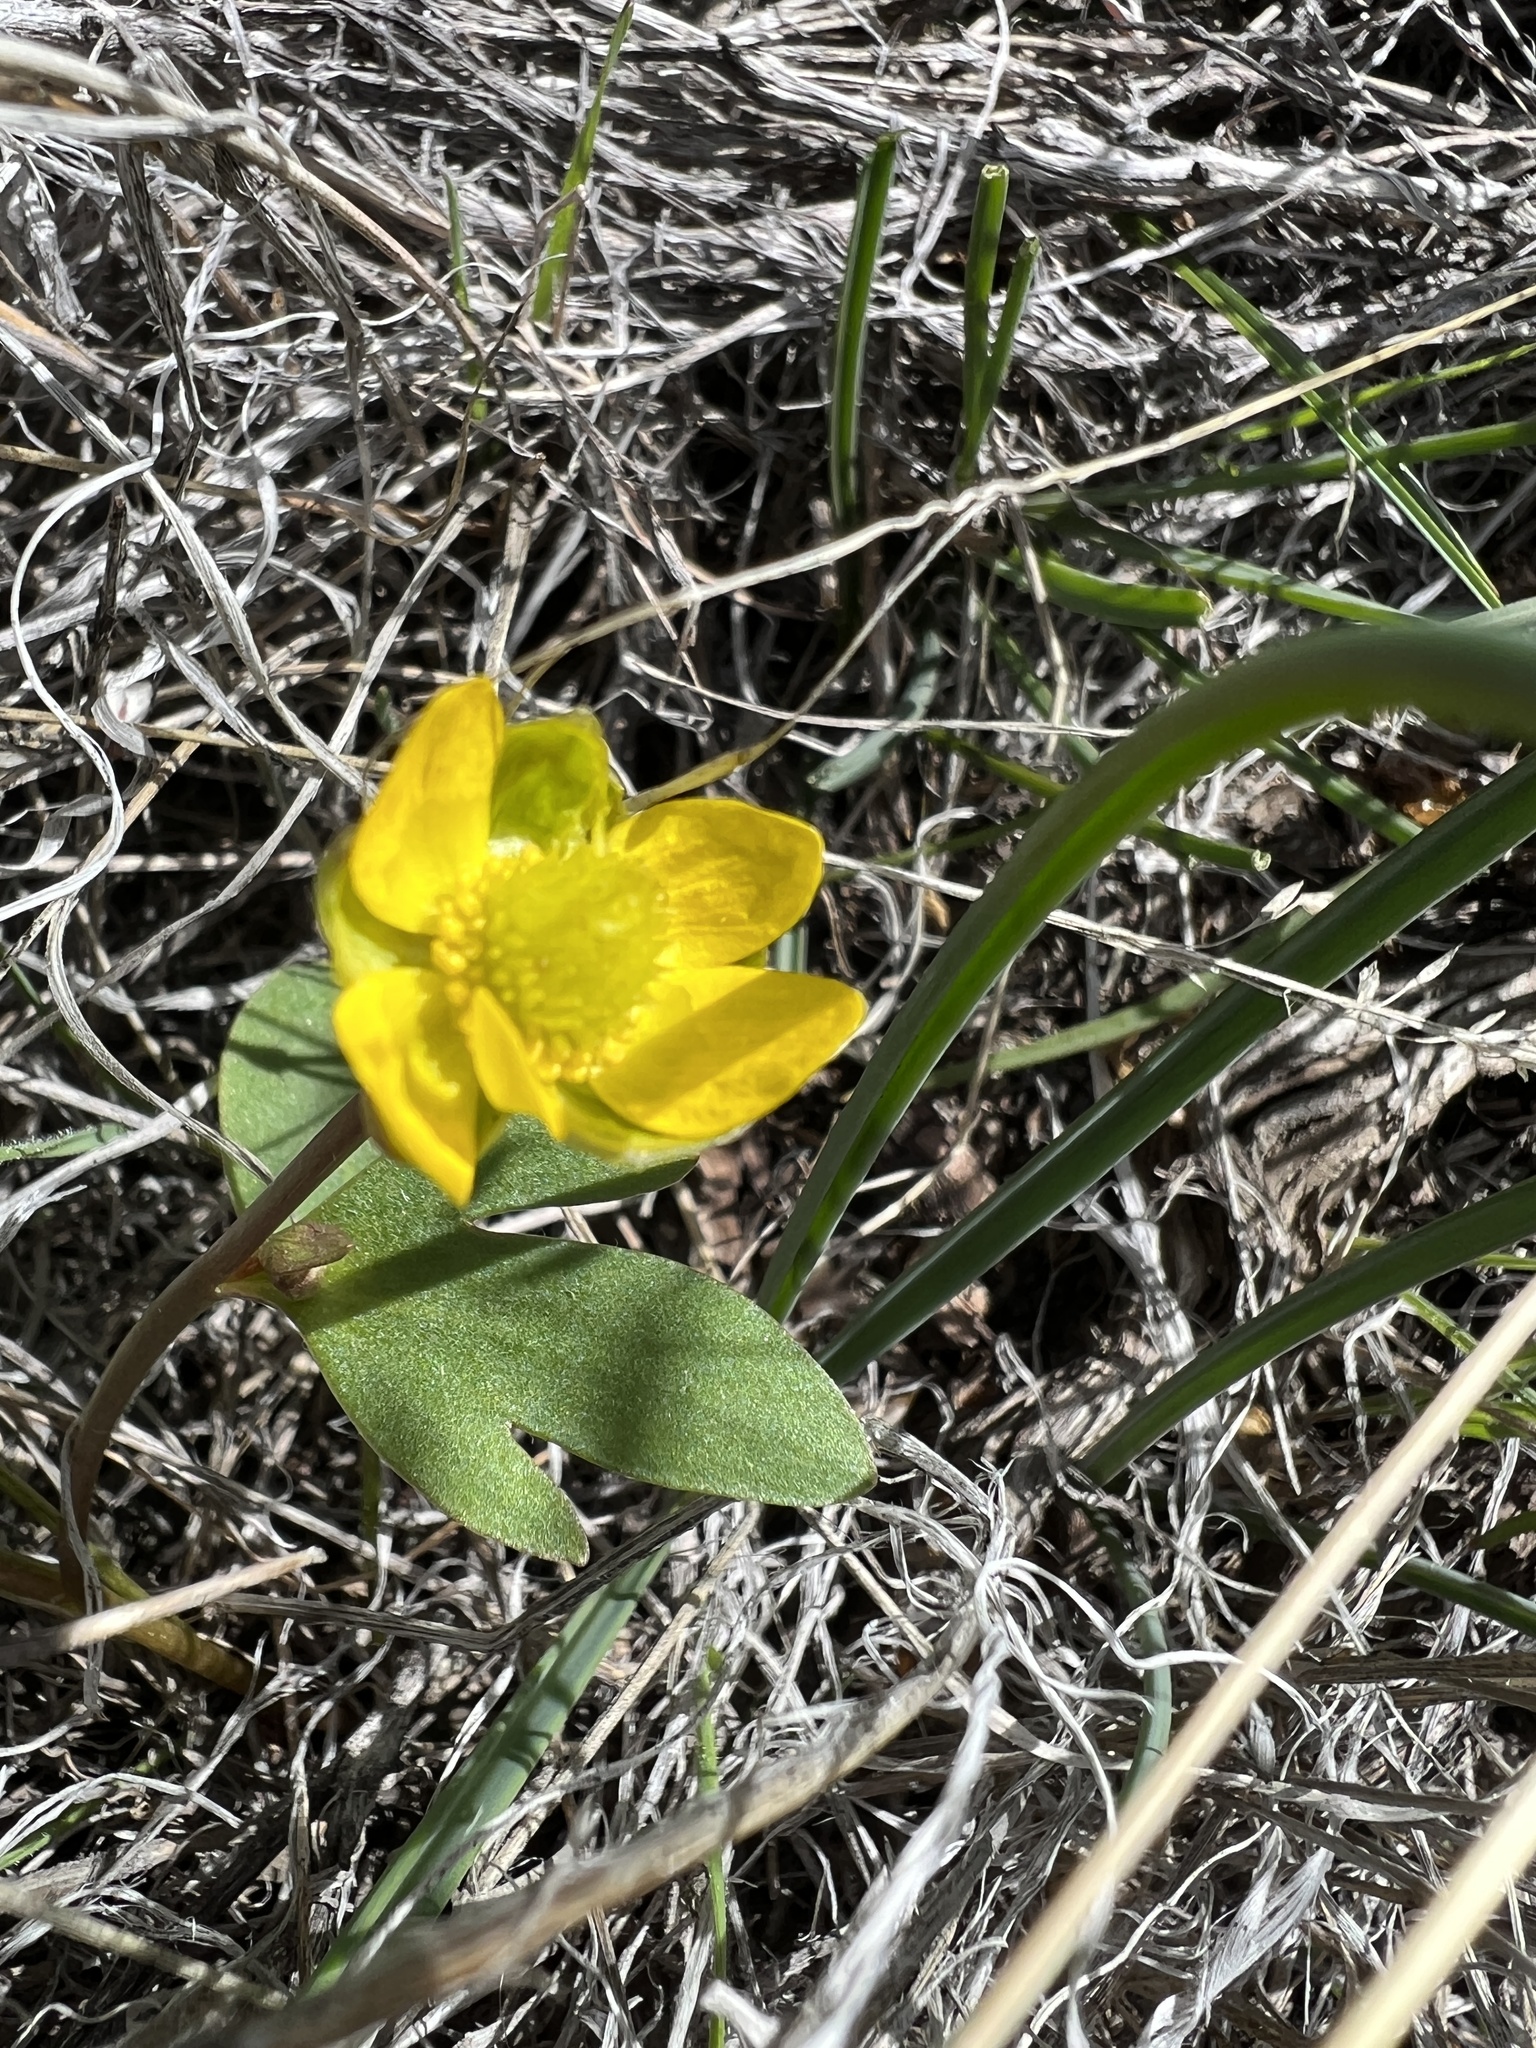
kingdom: Plantae
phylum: Tracheophyta
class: Magnoliopsida
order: Ranunculales
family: Ranunculaceae
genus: Ranunculus
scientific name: Ranunculus glaberrimus
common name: Sagebrush buttercup
